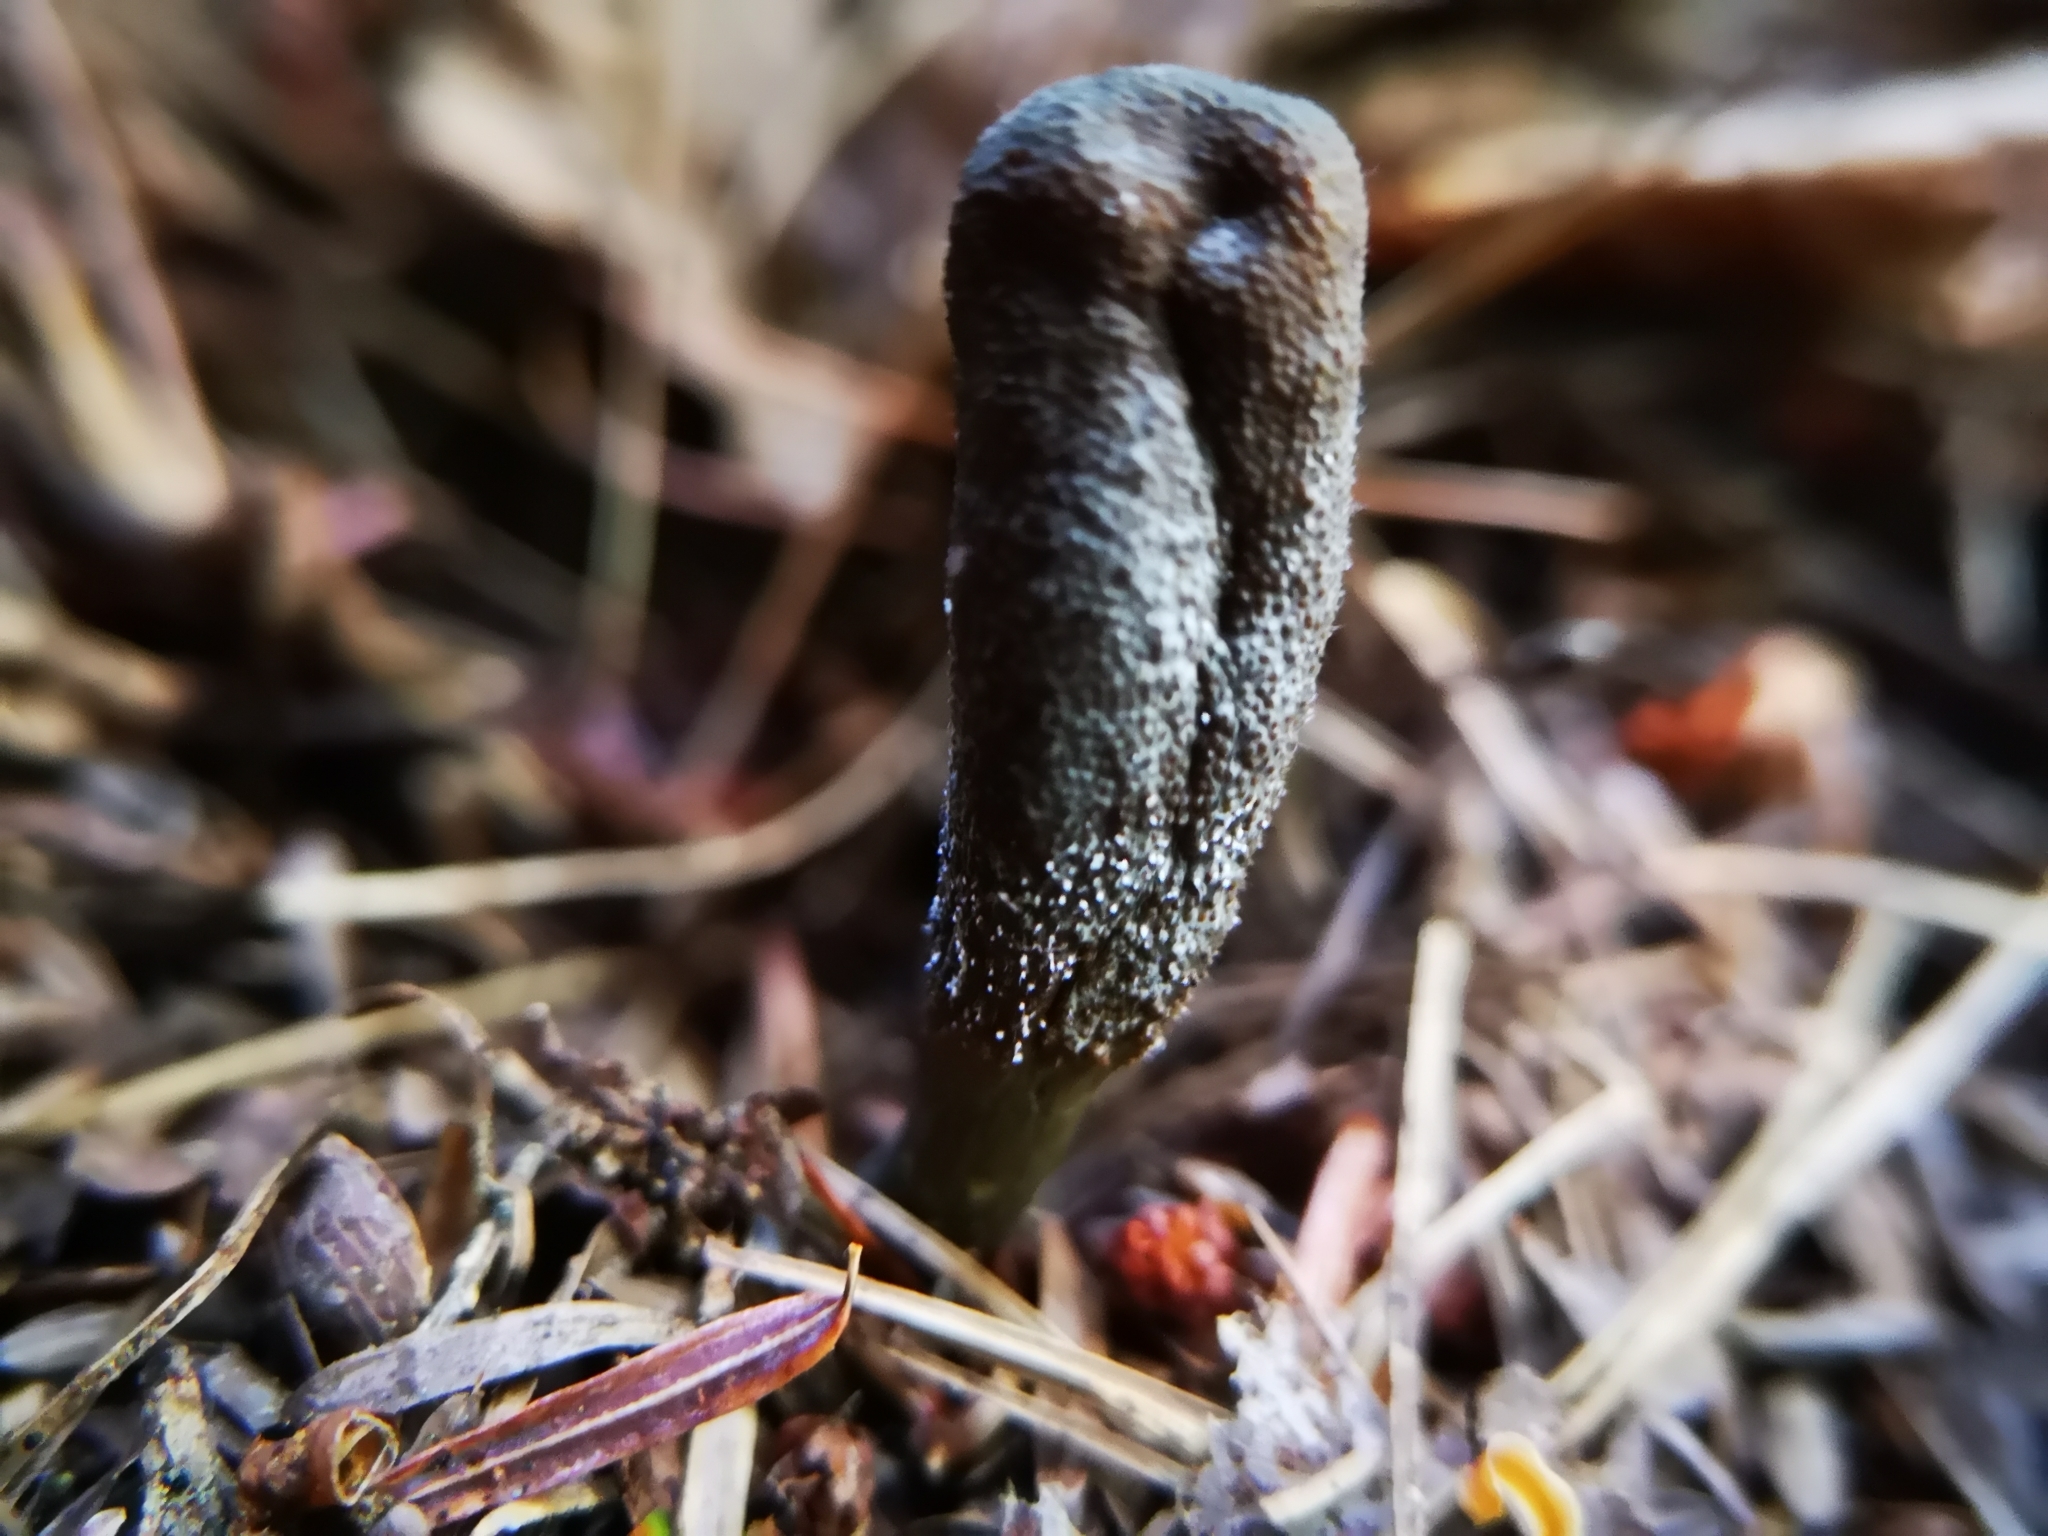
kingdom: Fungi
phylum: Ascomycota
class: Sordariomycetes
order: Hypocreales
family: Ophiocordycipitaceae
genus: Tolypocladium
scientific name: Tolypocladium ophioglossoides
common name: Snaketongue truffleclub
